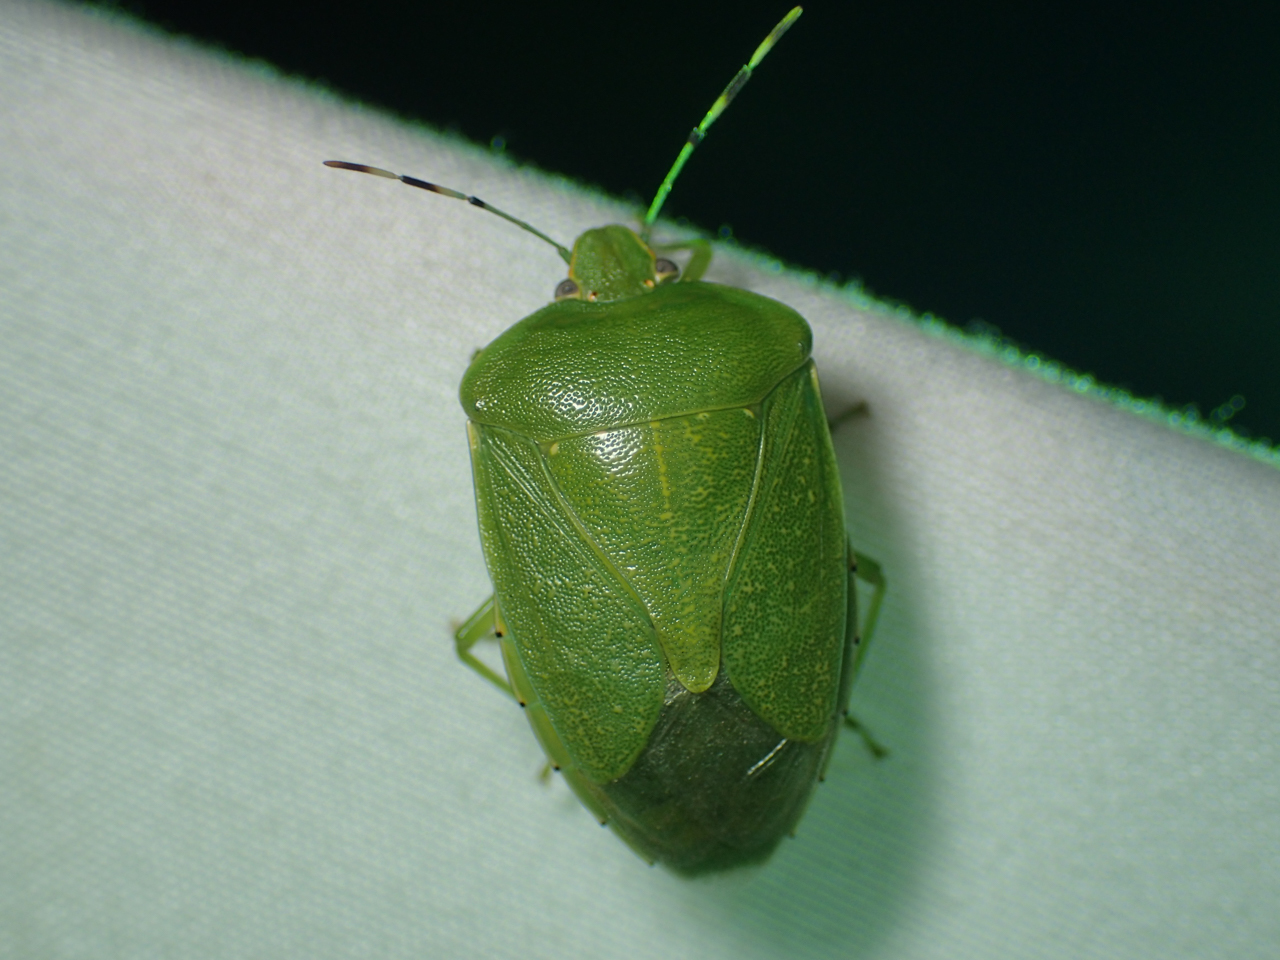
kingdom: Animalia
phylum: Arthropoda
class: Insecta
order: Hemiptera
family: Pentatomidae
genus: Chinavia
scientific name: Chinavia hilaris
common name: Green stink bug
